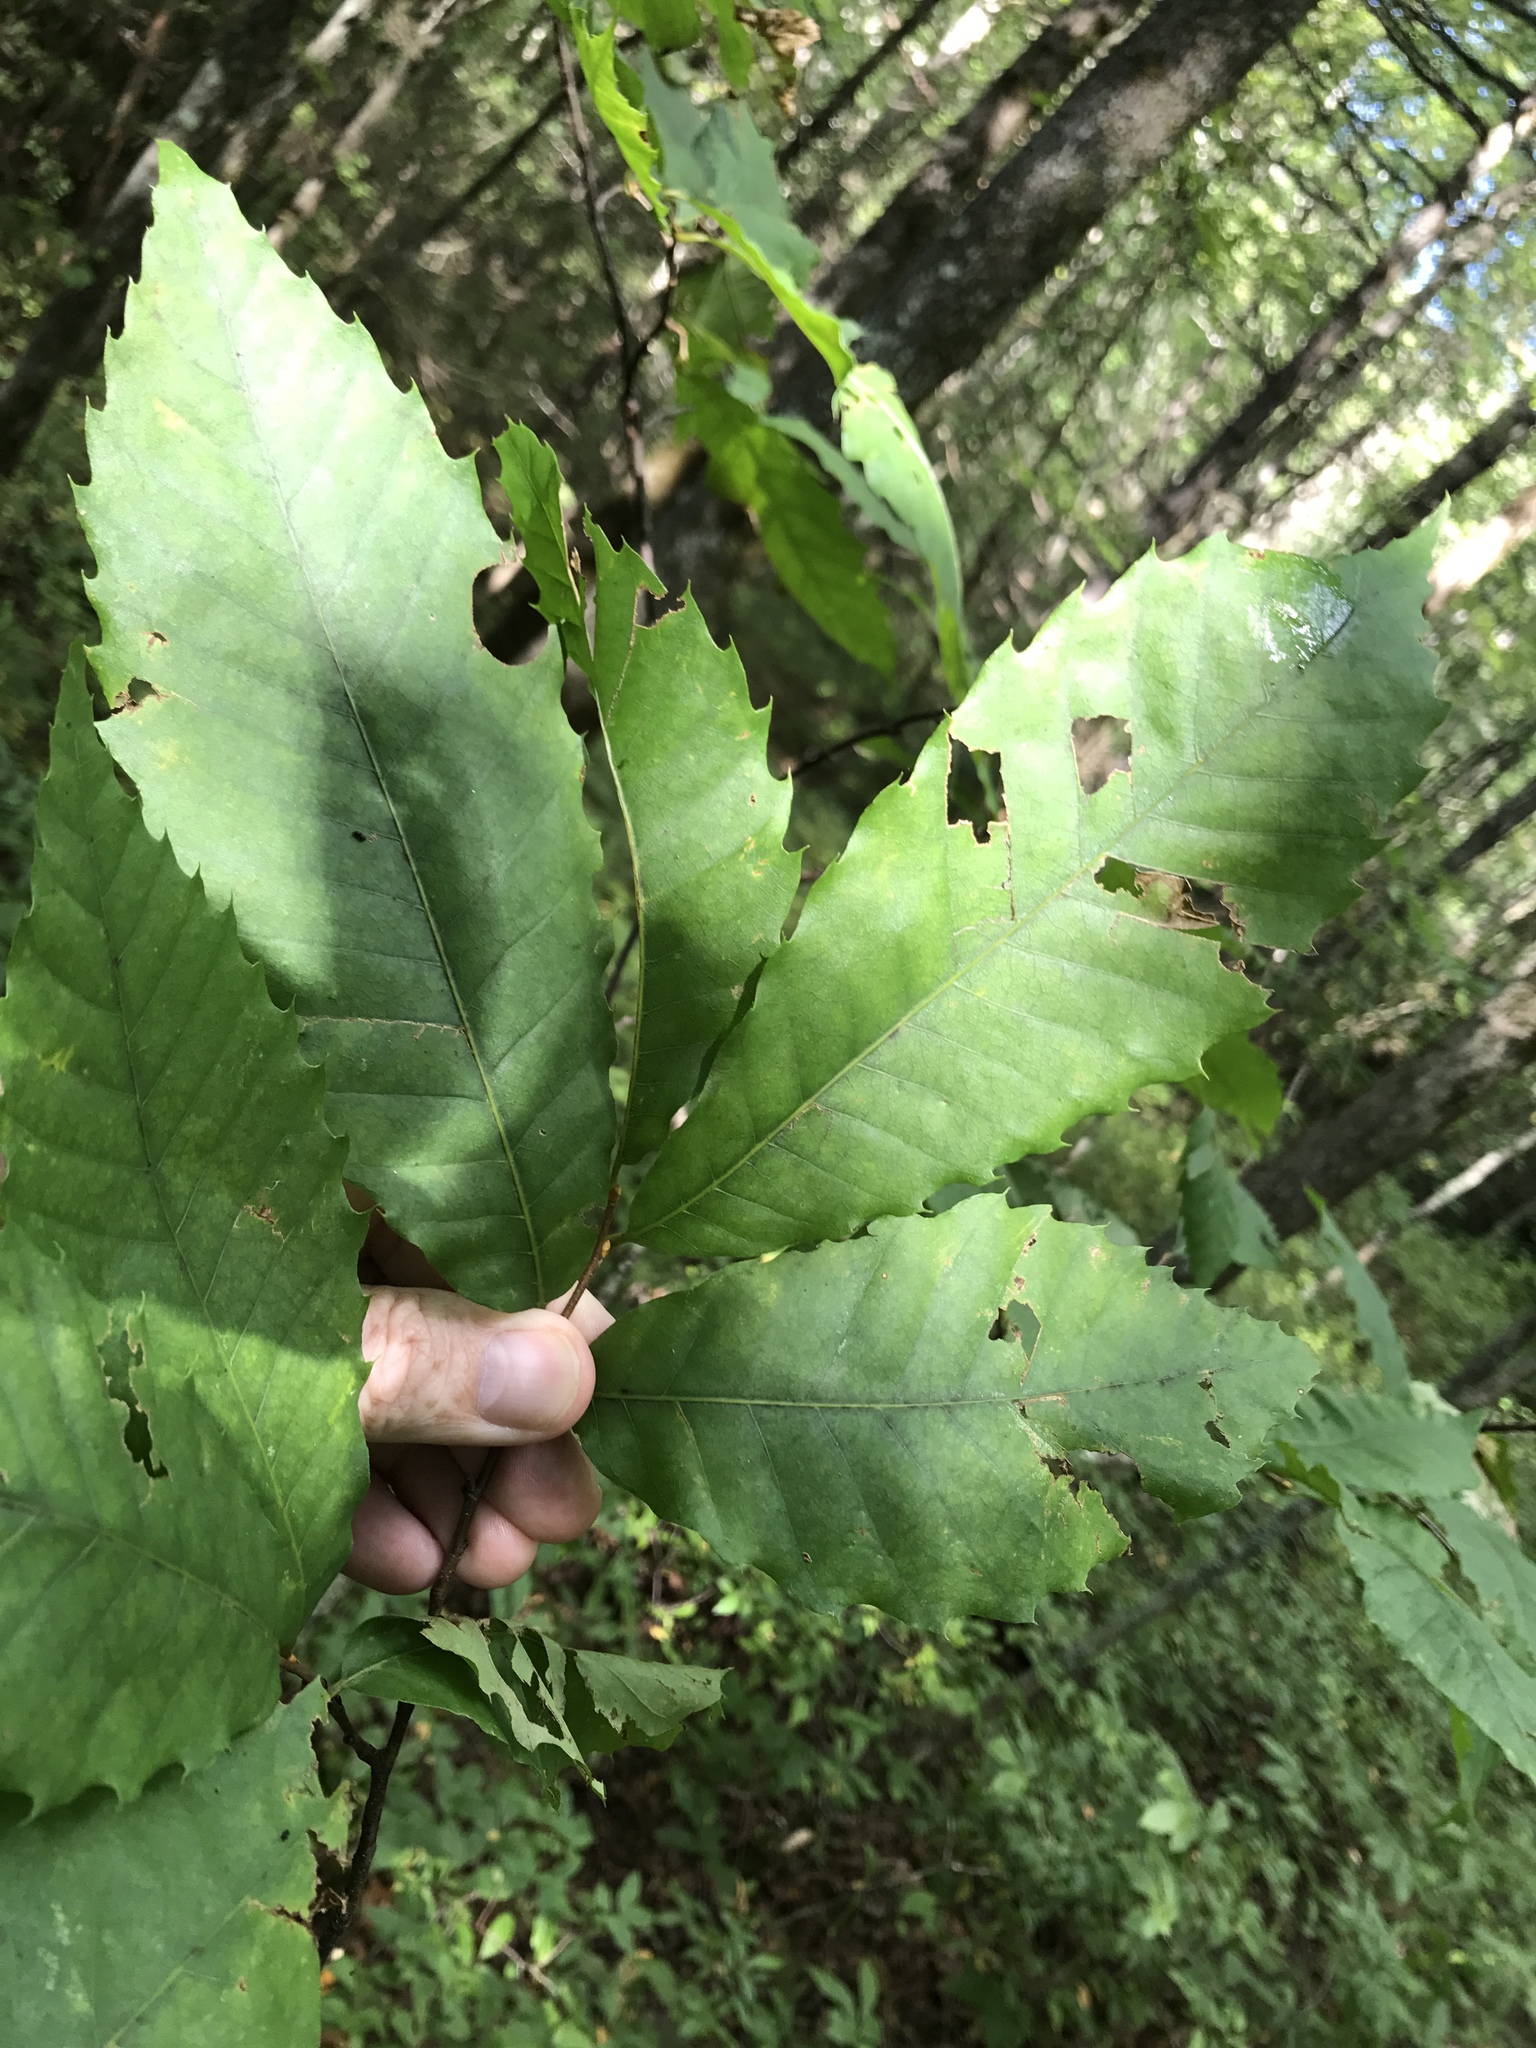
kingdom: Plantae
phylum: Tracheophyta
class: Magnoliopsida
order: Fagales
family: Fagaceae
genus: Castanea
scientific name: Castanea dentata
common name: American chestnut
